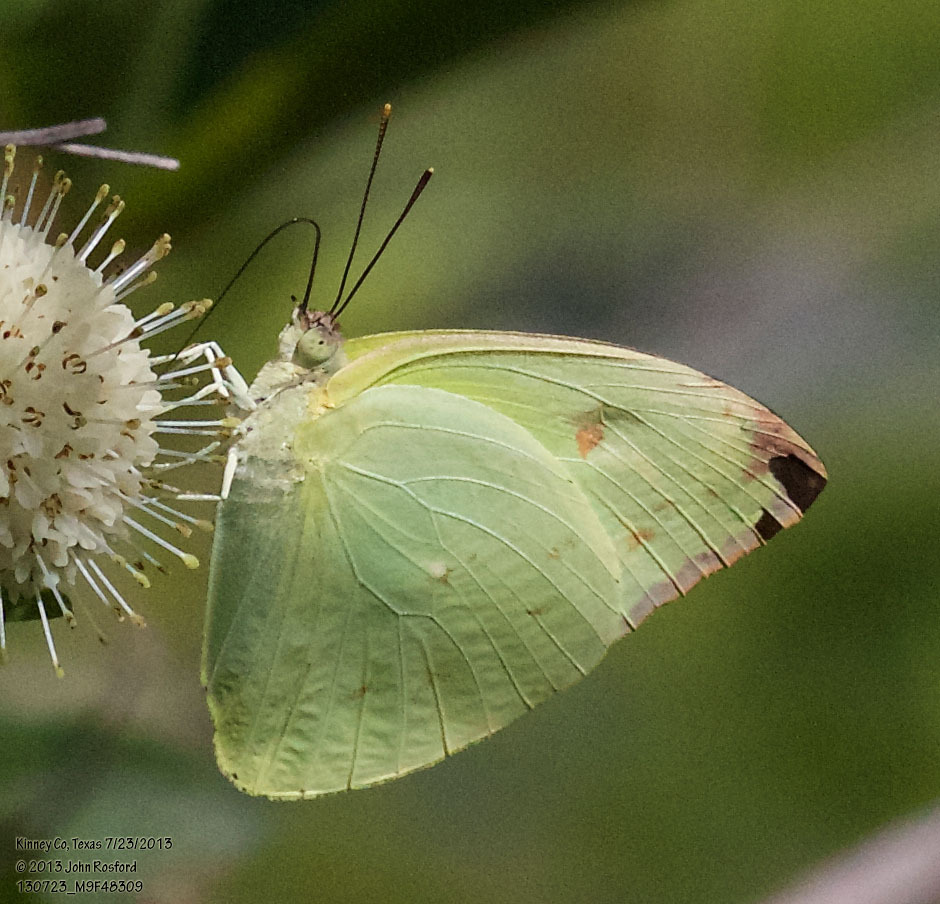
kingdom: Animalia
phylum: Arthropoda
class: Insecta
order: Lepidoptera
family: Pieridae
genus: Aphrissa
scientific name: Aphrissa statira
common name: Statira sulphur
